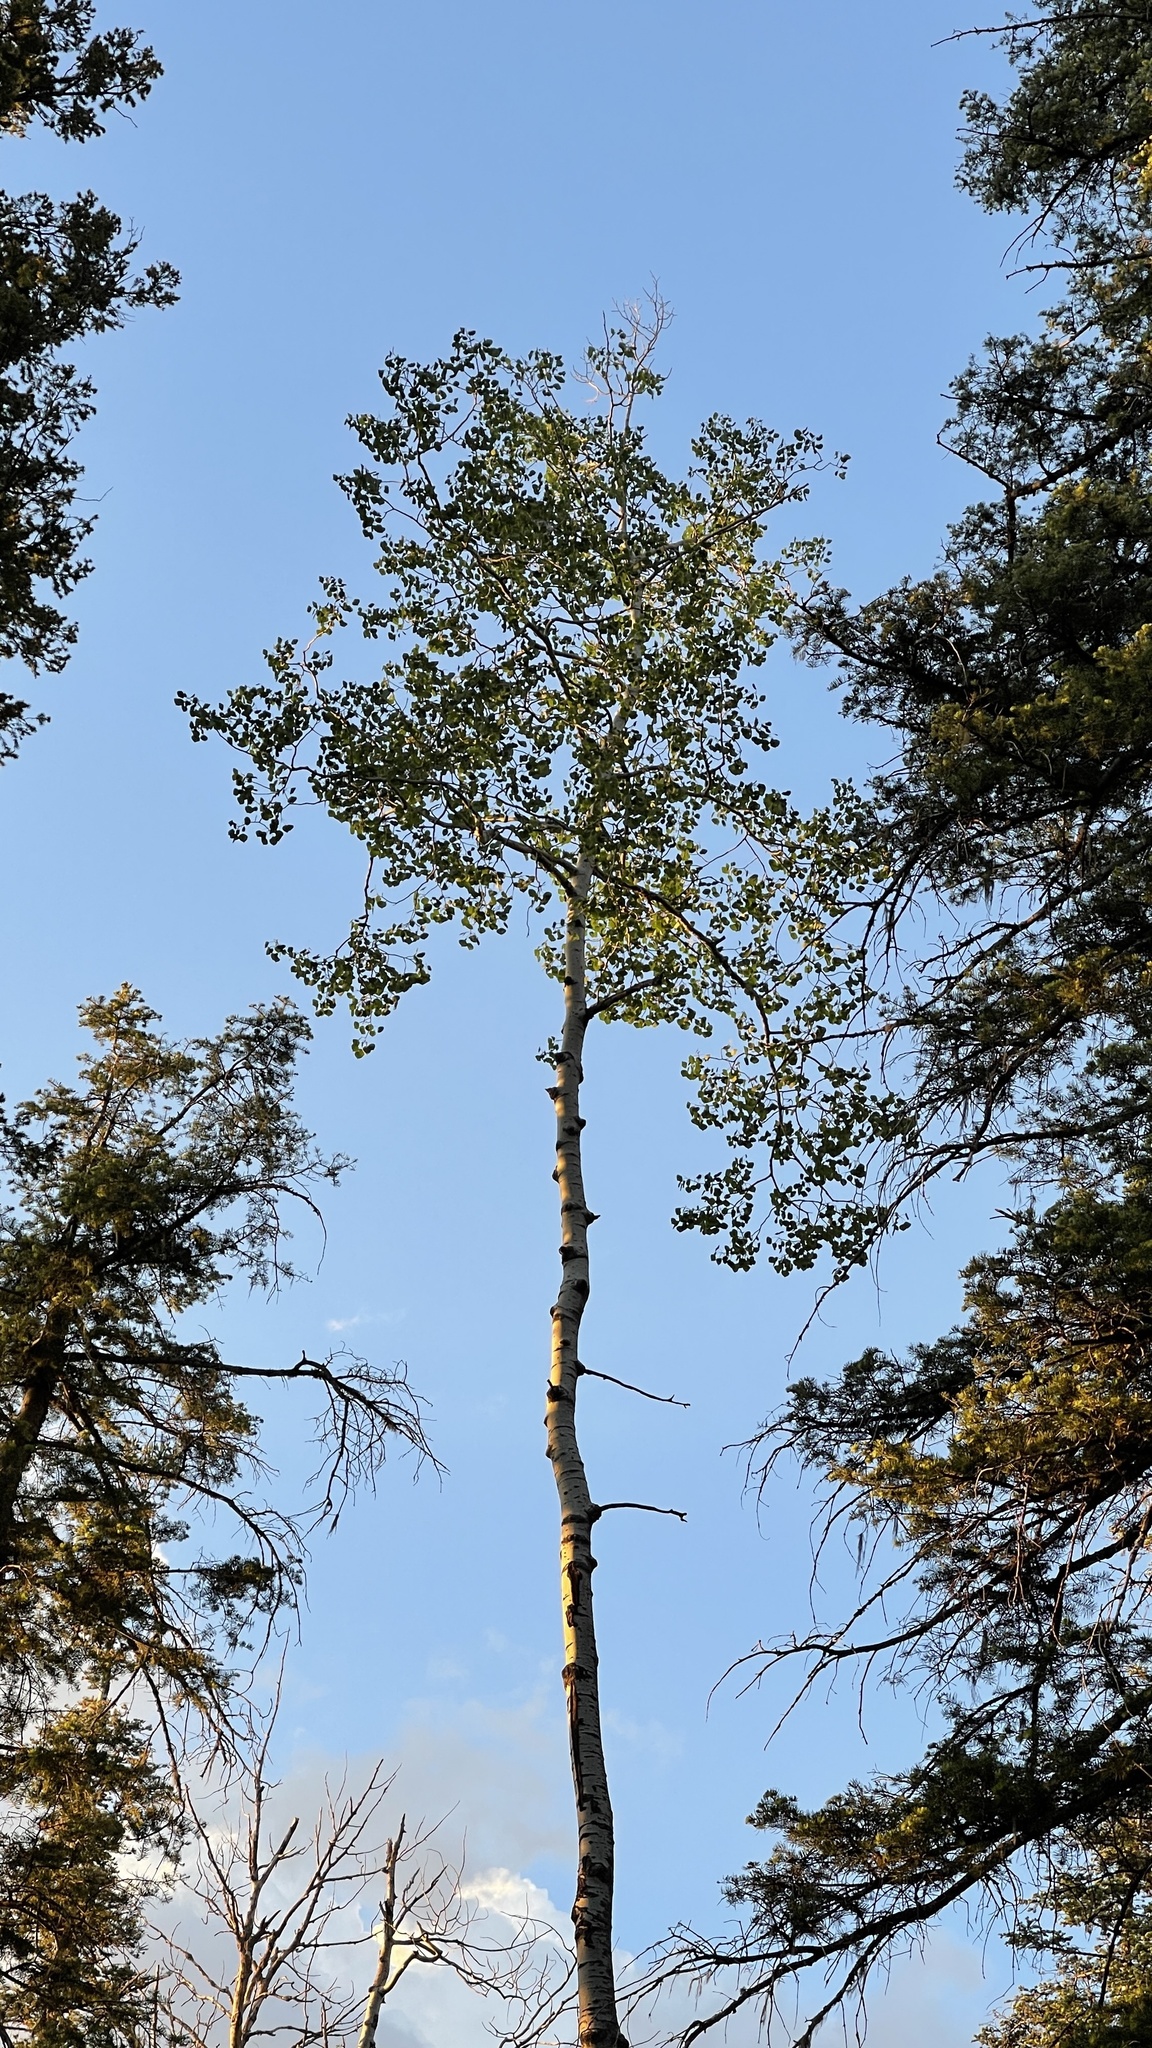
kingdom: Plantae
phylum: Tracheophyta
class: Magnoliopsida
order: Malpighiales
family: Salicaceae
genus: Populus
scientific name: Populus tremuloides
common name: Quaking aspen
